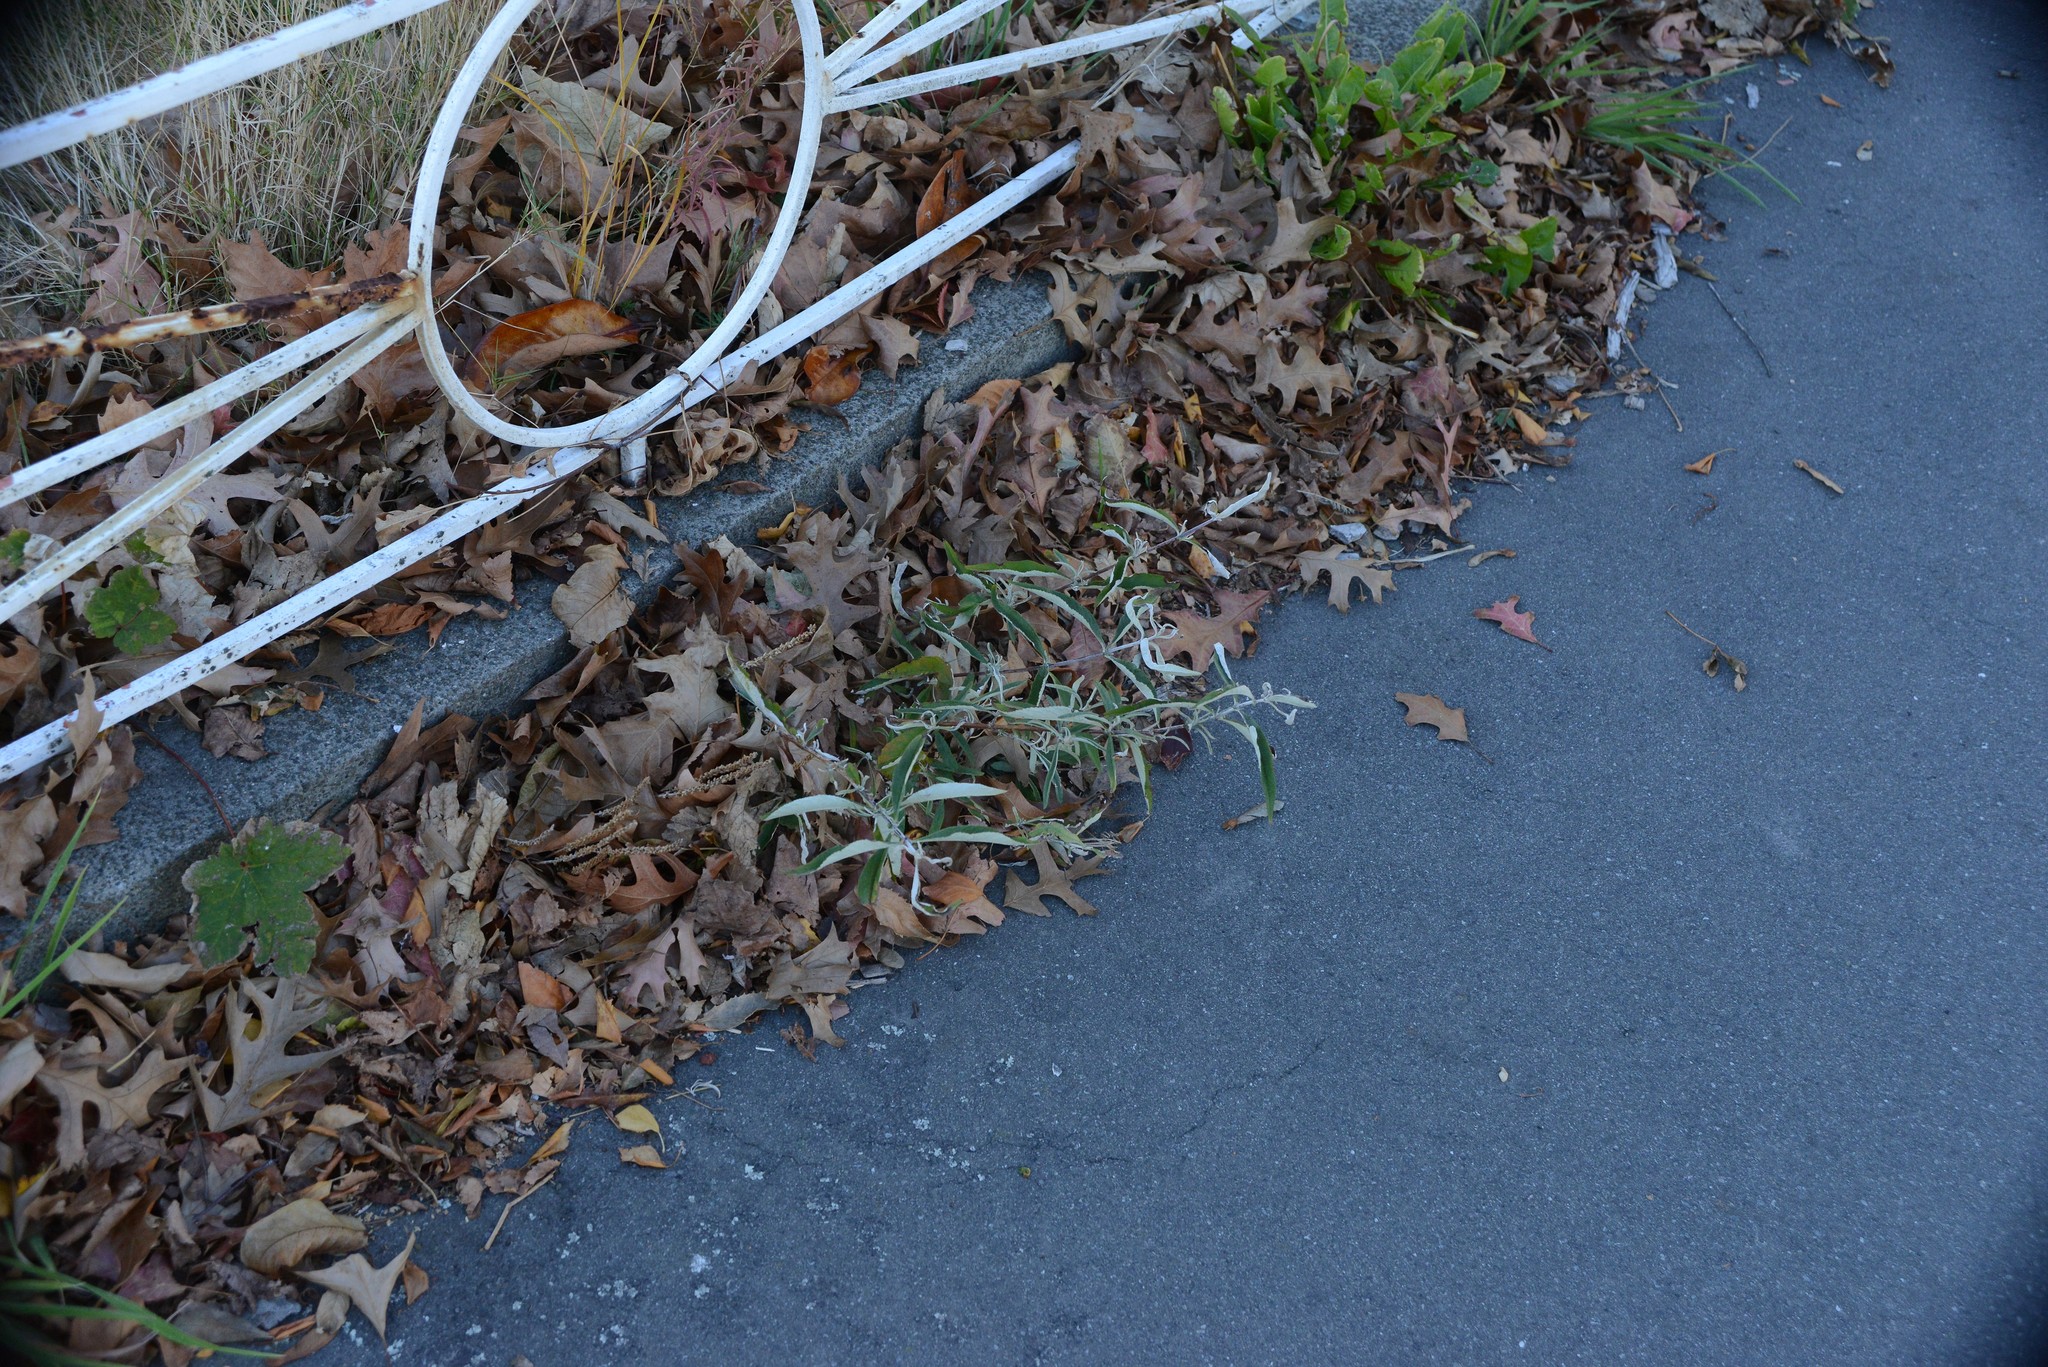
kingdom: Plantae
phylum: Tracheophyta
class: Magnoliopsida
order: Lamiales
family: Scrophulariaceae
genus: Buddleja
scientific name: Buddleja davidii
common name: Butterfly-bush
